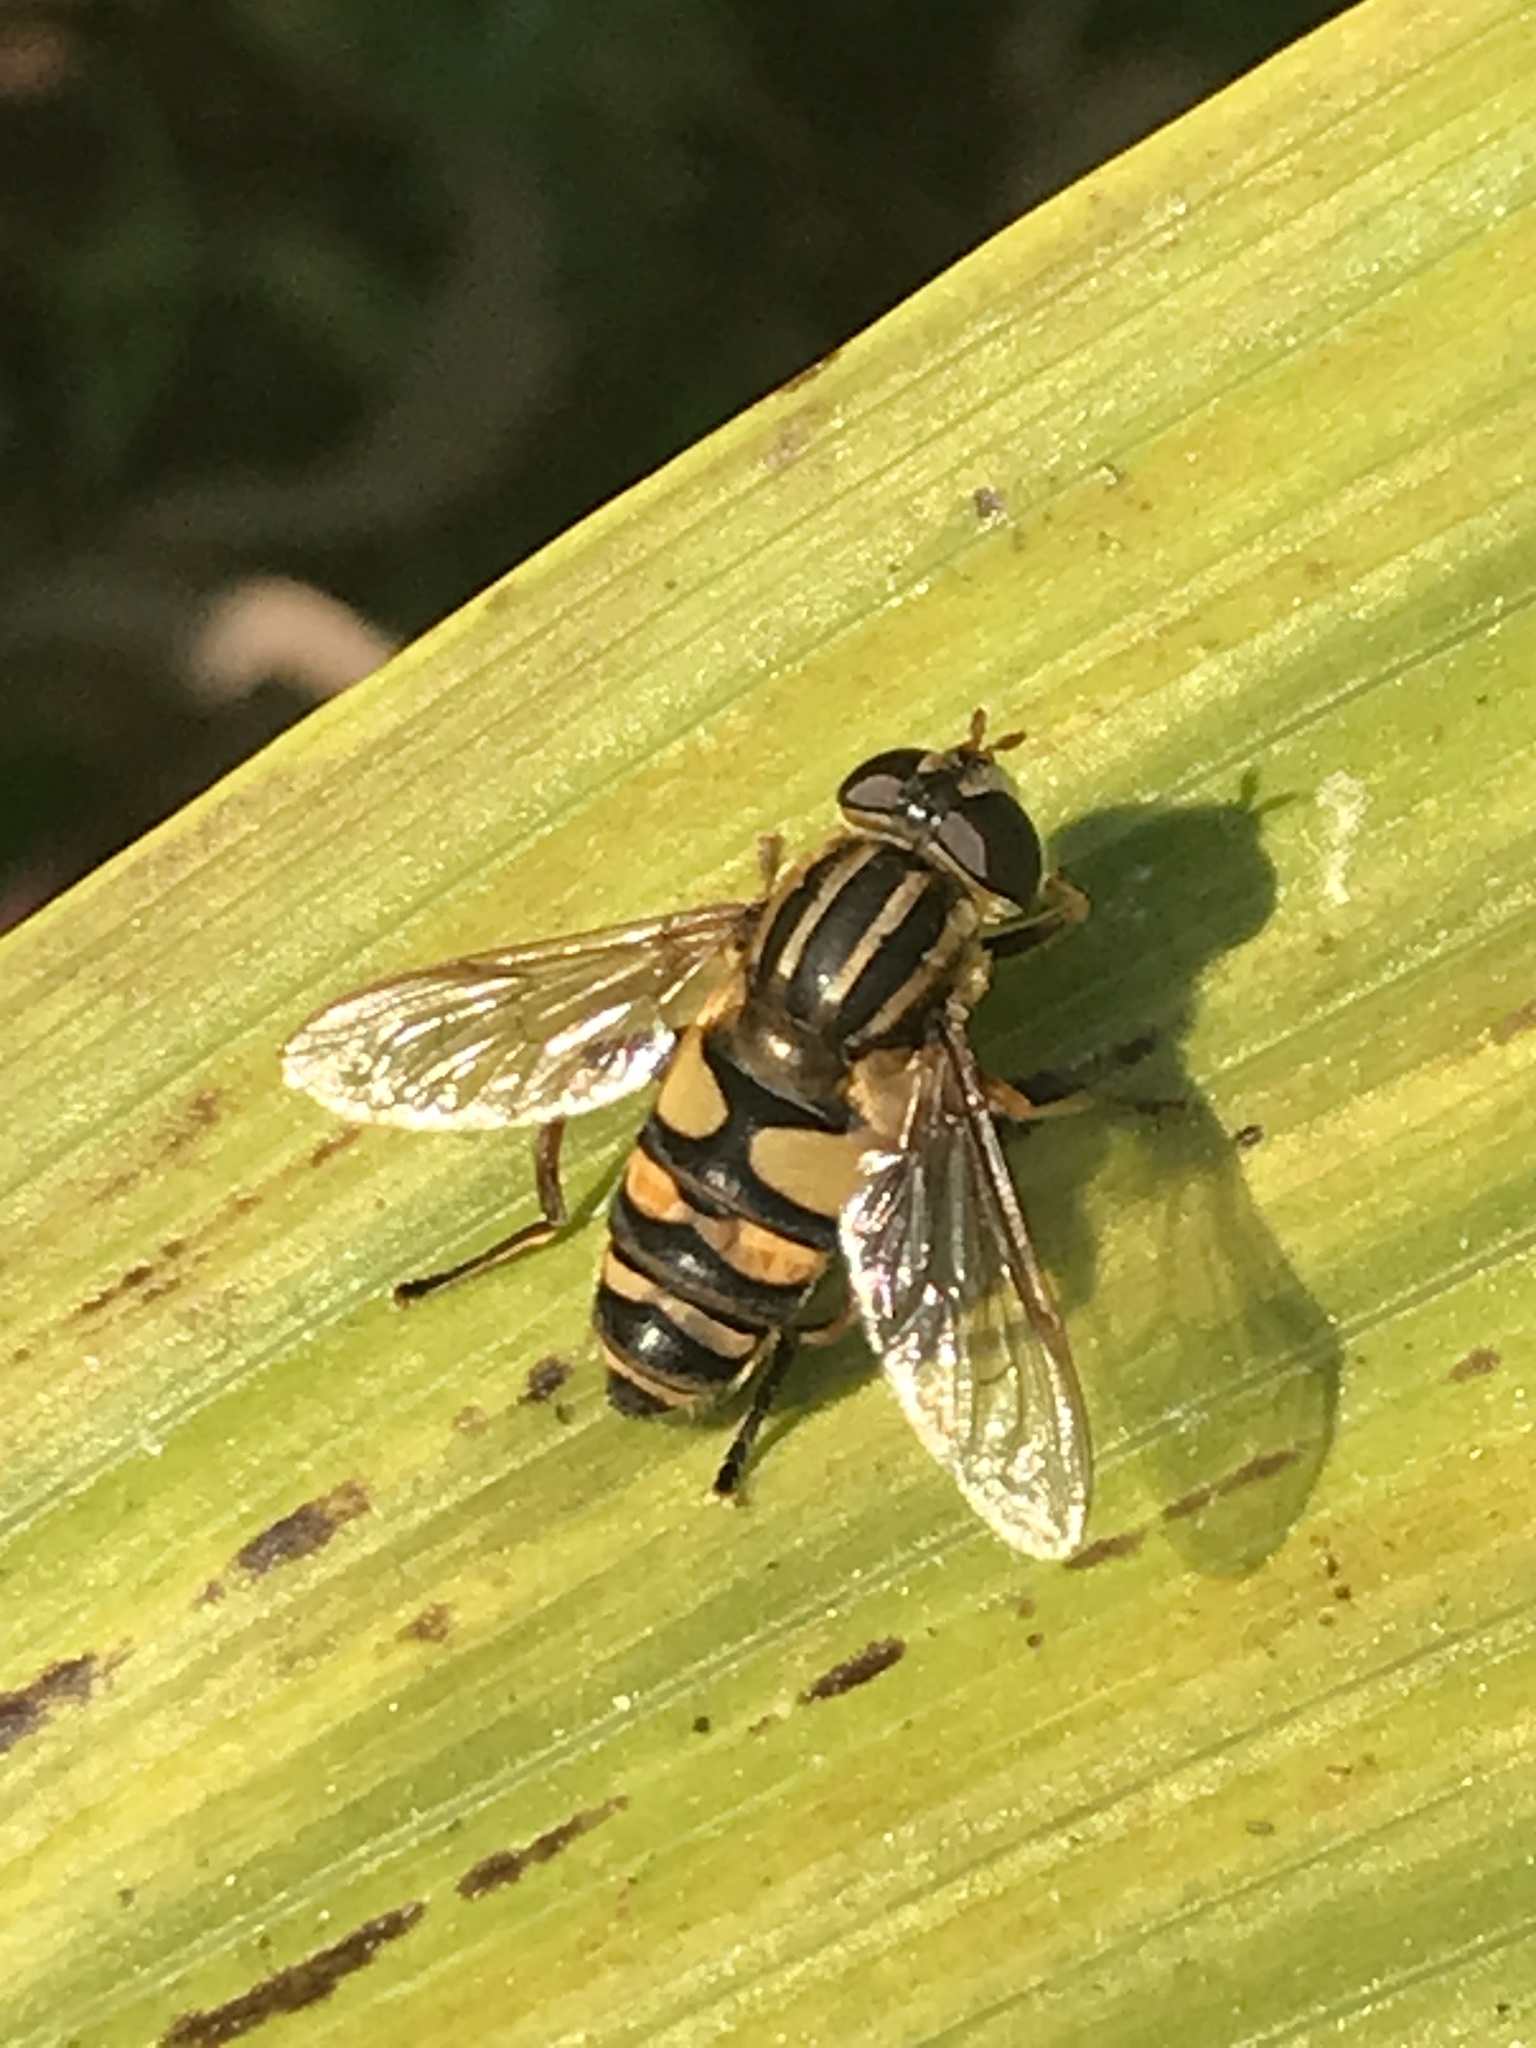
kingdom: Animalia
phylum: Arthropoda
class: Insecta
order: Diptera
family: Syrphidae
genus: Helophilus
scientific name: Helophilus fasciatus
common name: Narrow-headed marsh fly
